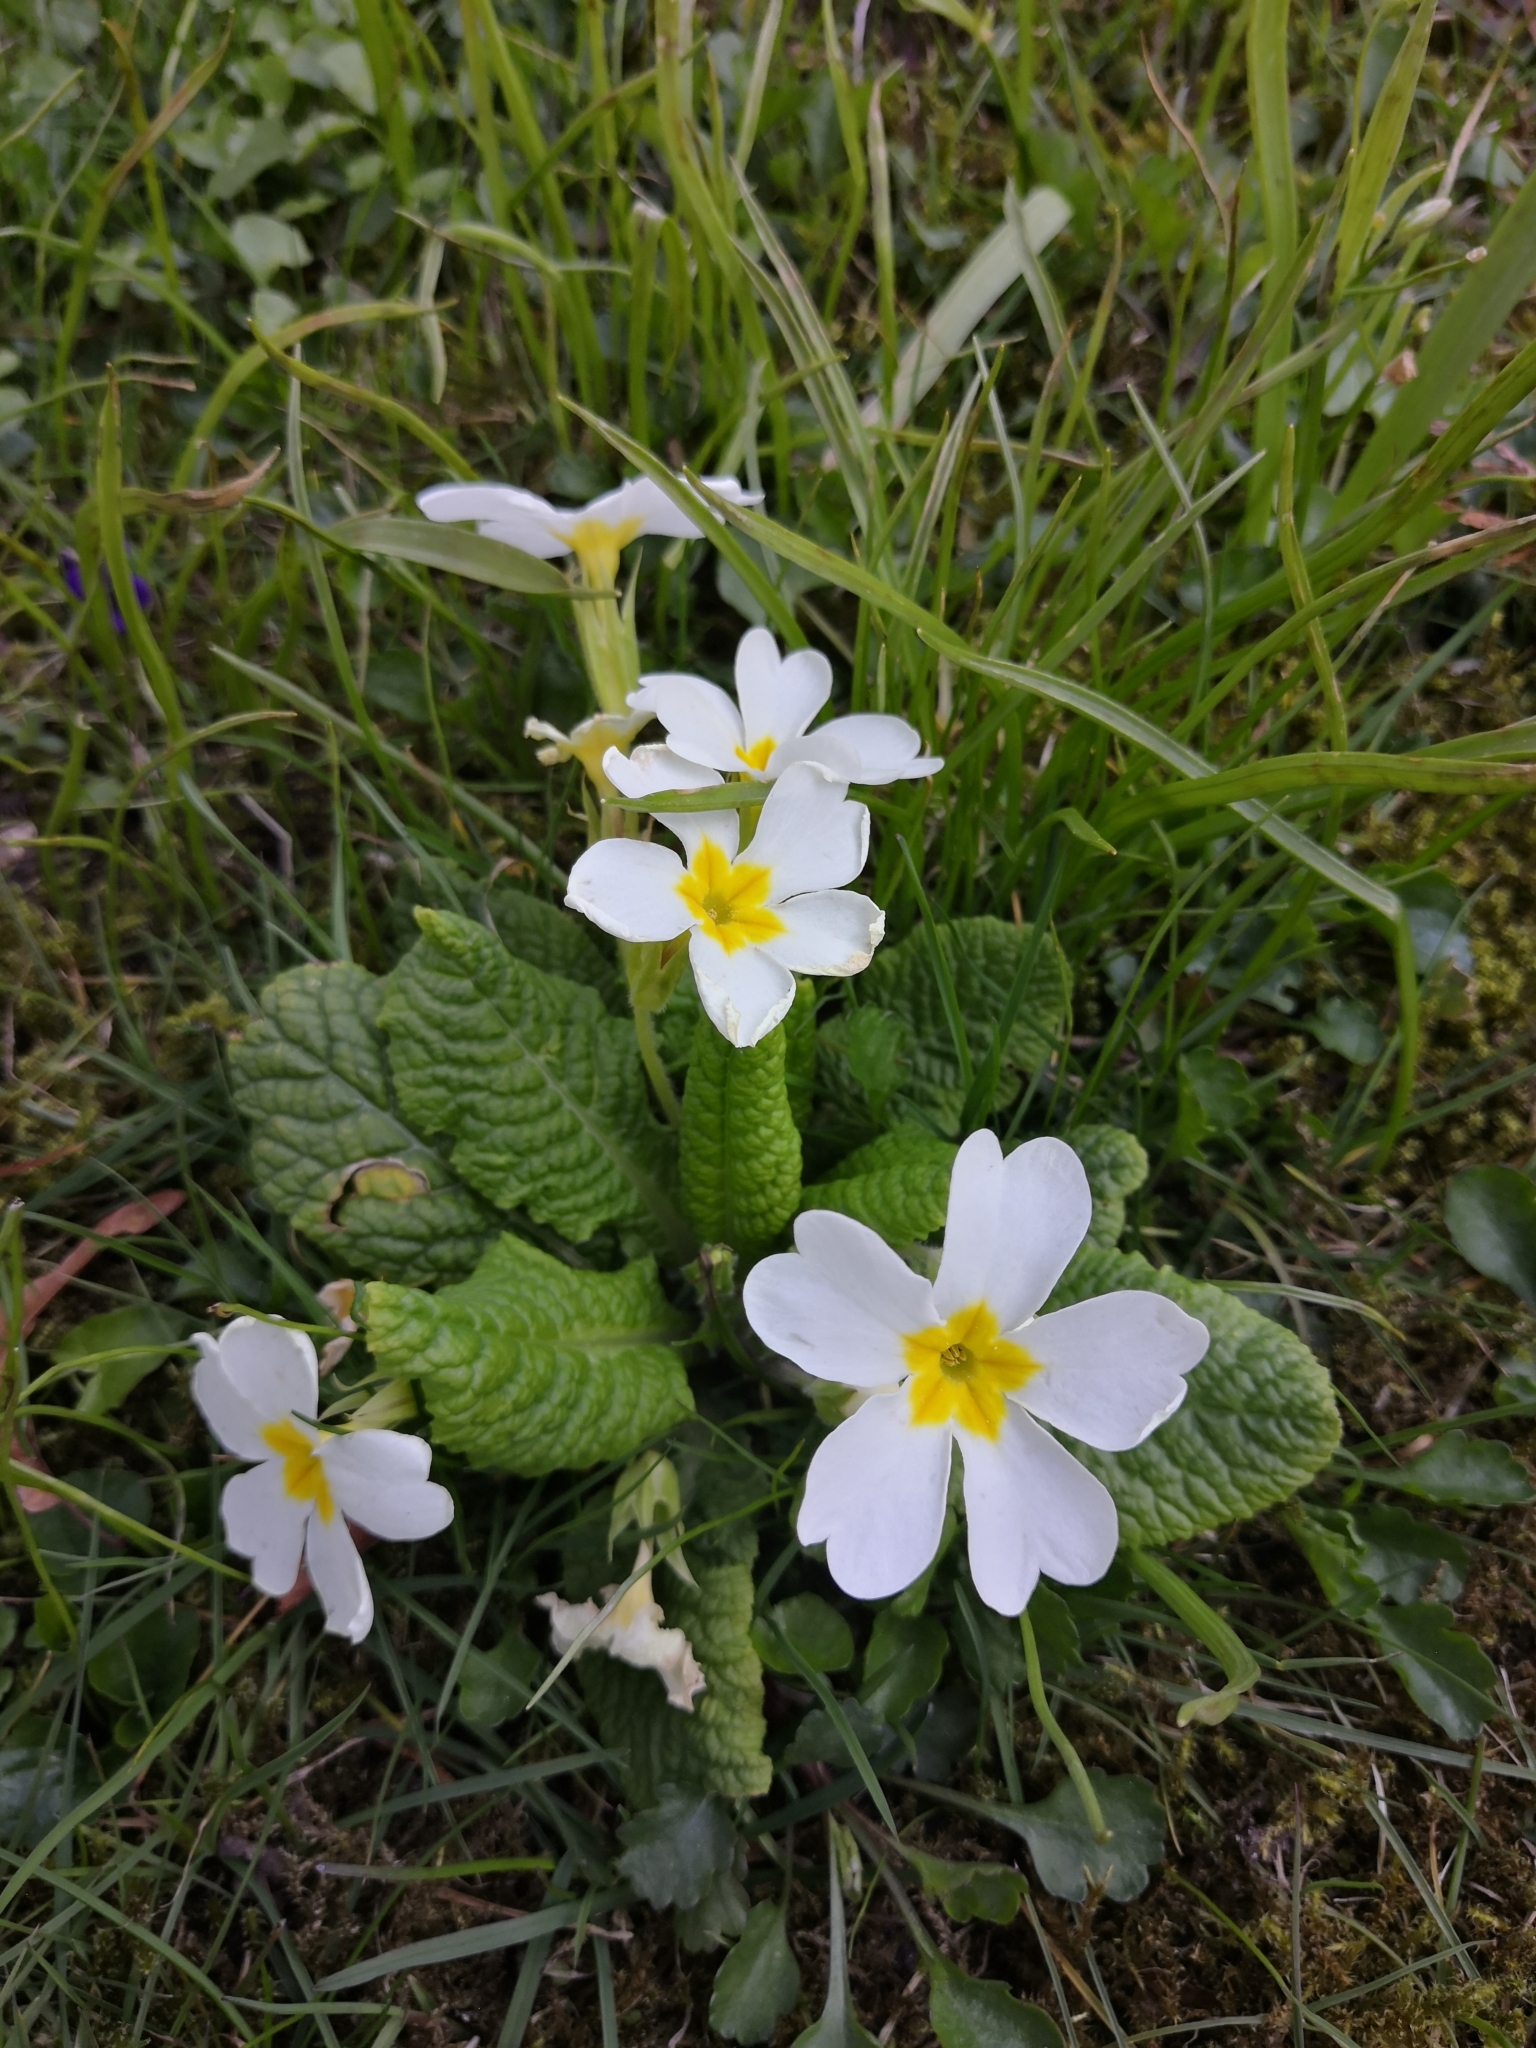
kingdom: Plantae
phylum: Tracheophyta
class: Magnoliopsida
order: Ericales
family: Primulaceae
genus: Primula
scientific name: Primula vulgaris
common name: Primrose
